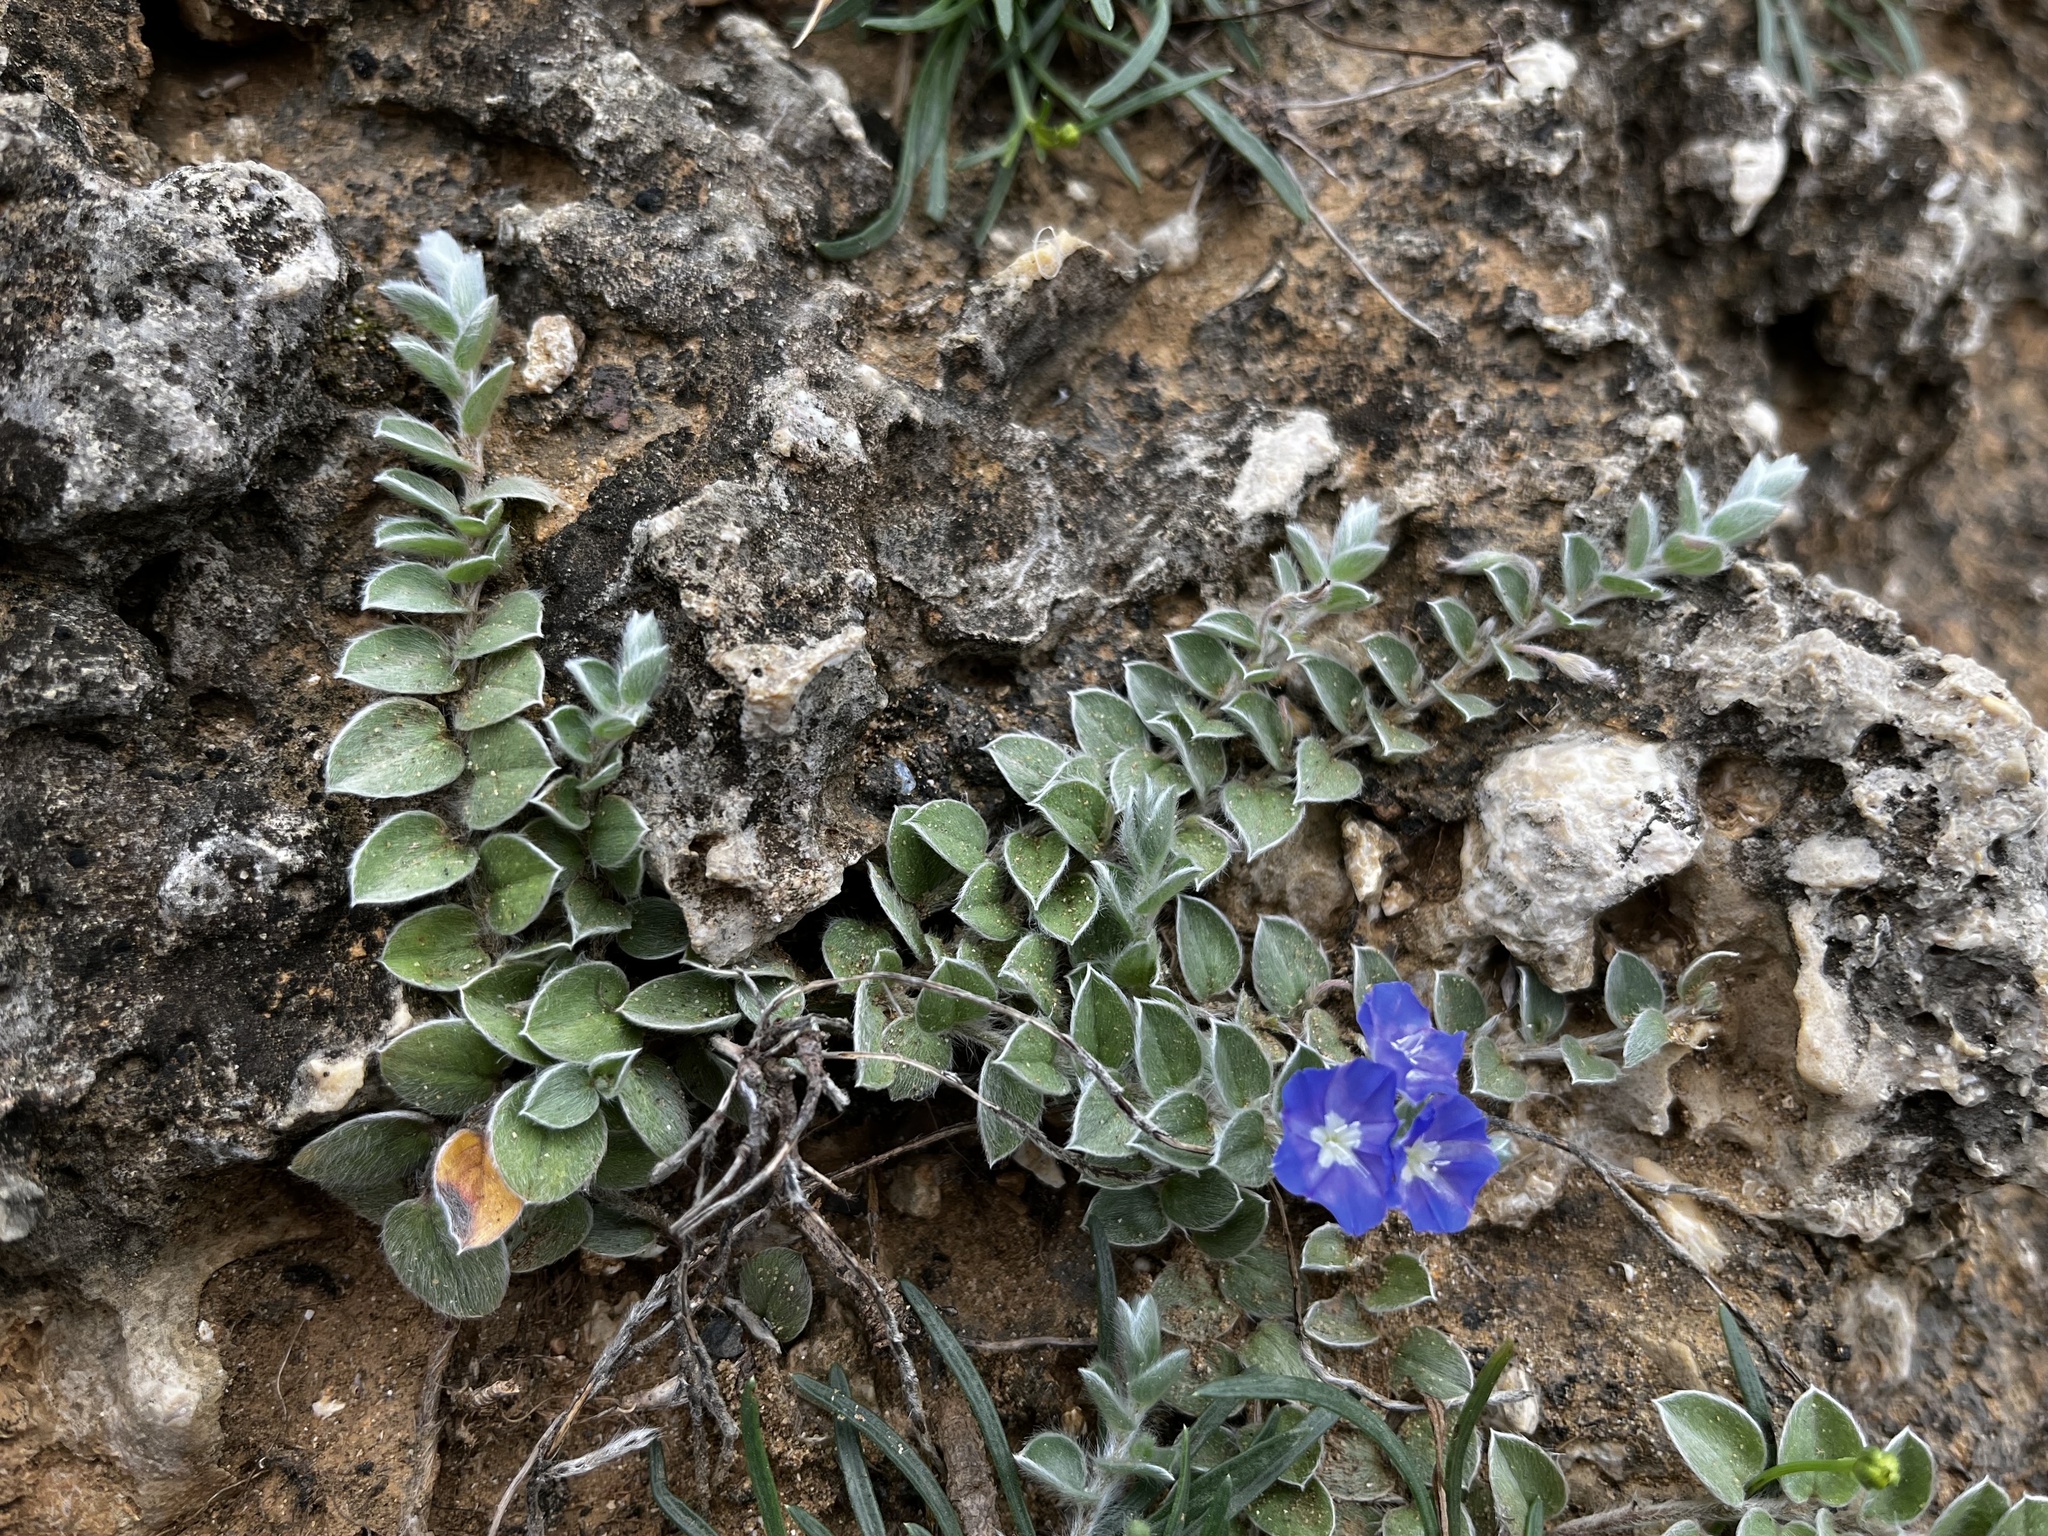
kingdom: Plantae
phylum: Tracheophyta
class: Magnoliopsida
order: Solanales
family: Convolvulaceae
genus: Evolvulus
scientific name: Evolvulus alsinoides
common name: Slender dwarf morning-glory
